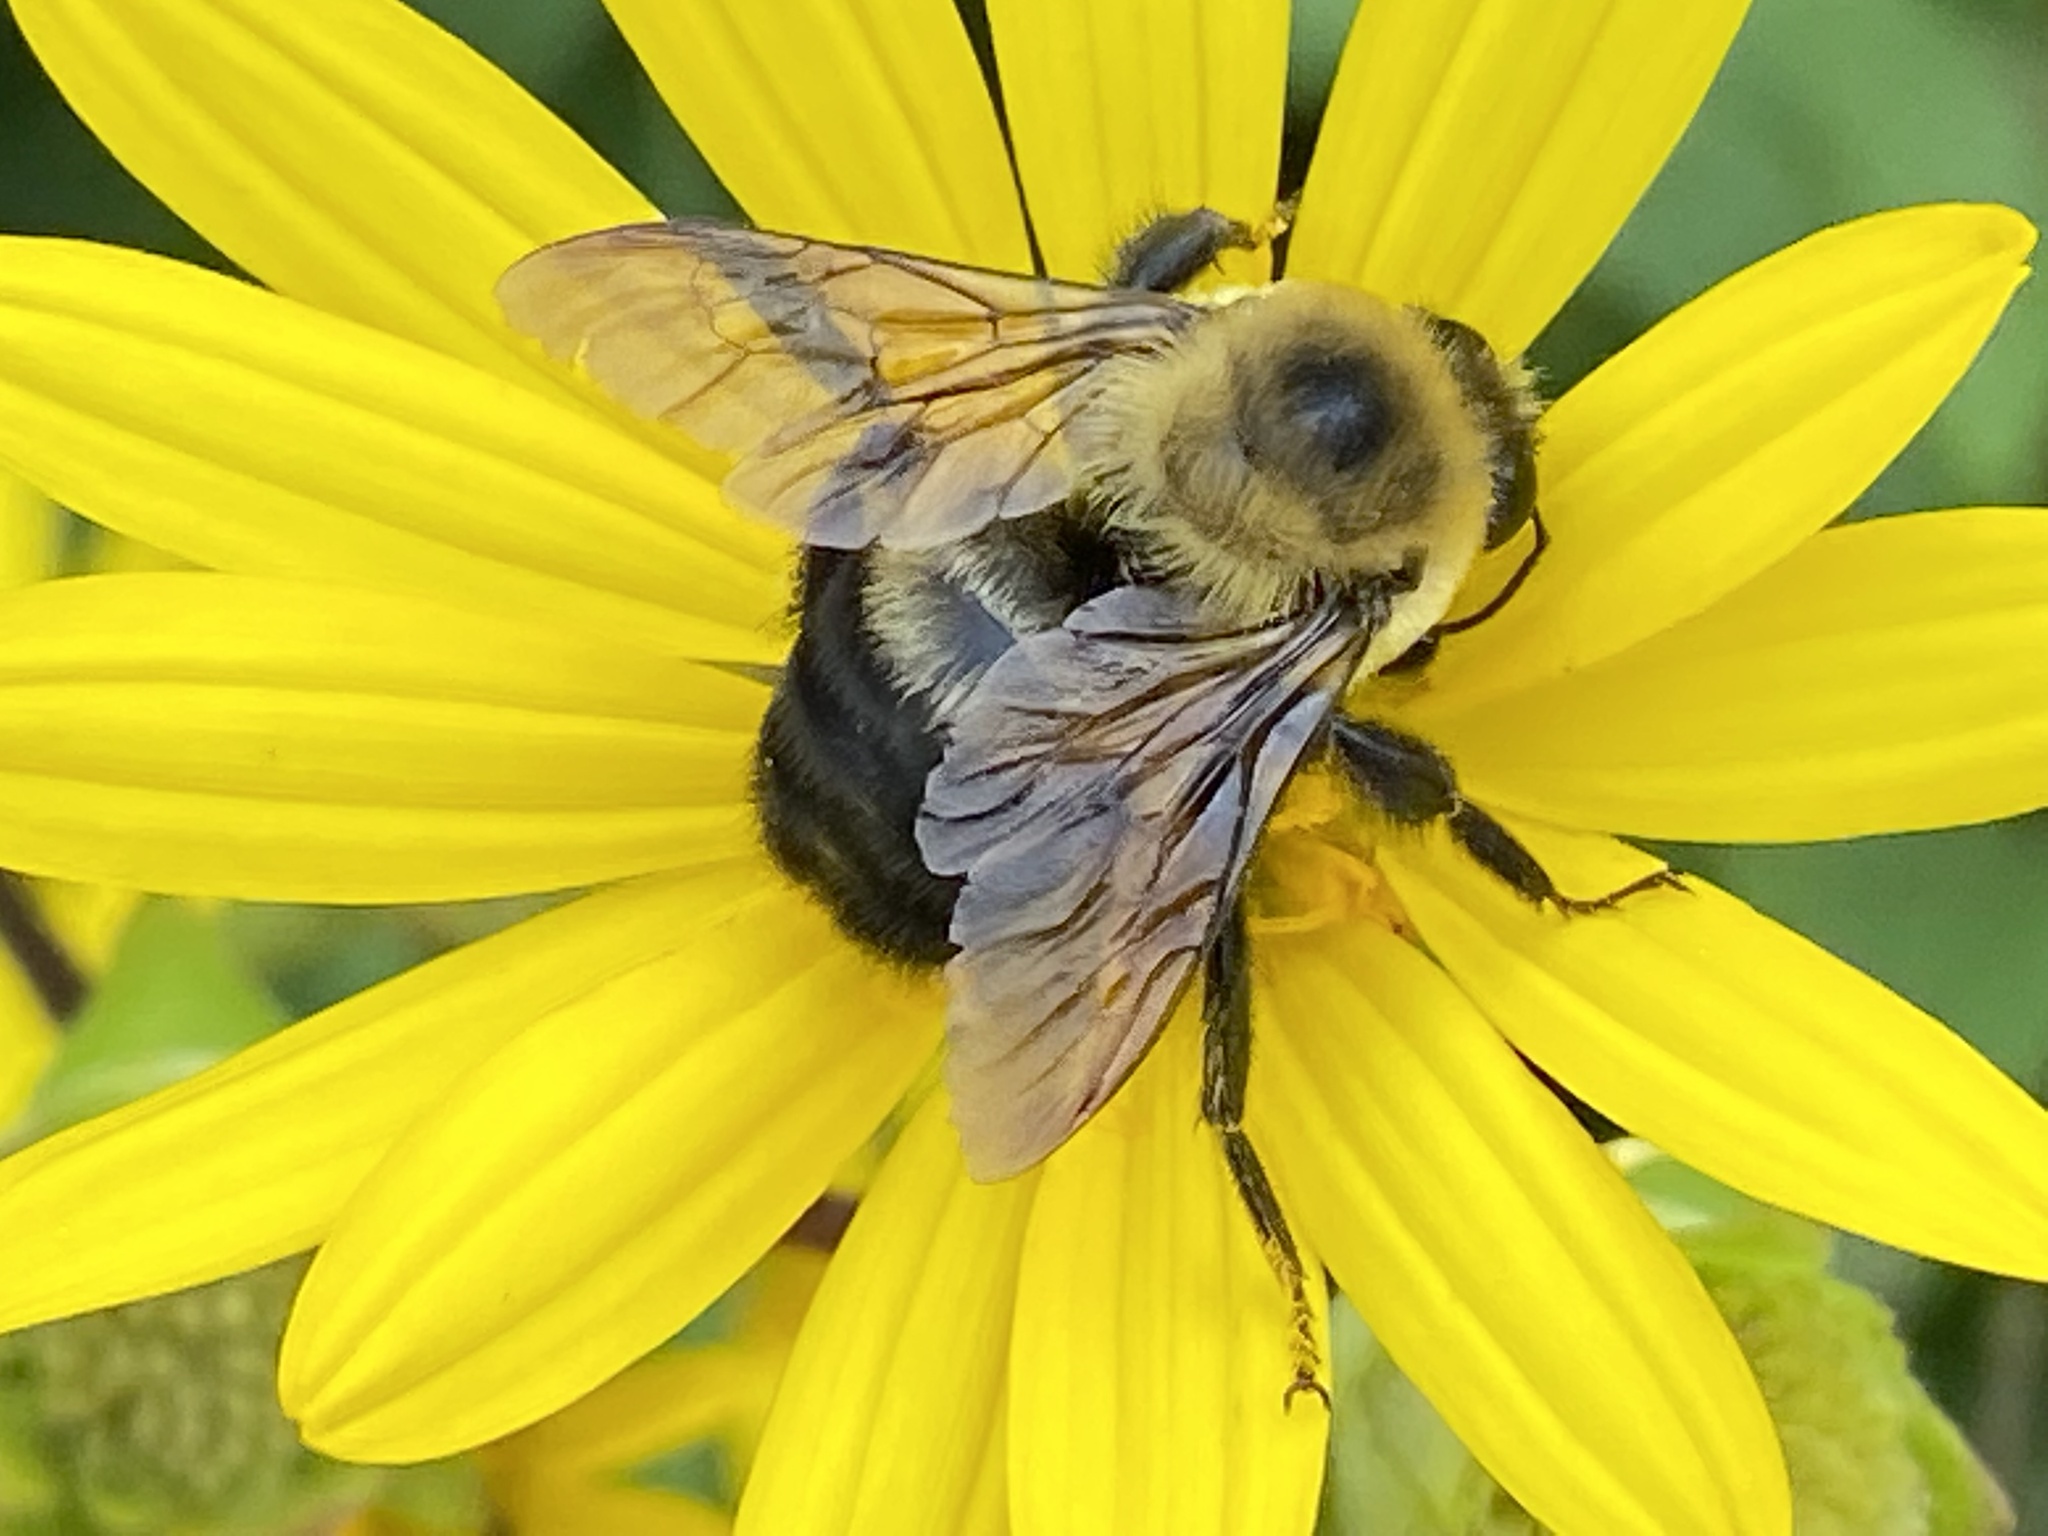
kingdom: Animalia
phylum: Arthropoda
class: Insecta
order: Hymenoptera
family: Apidae
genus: Bombus
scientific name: Bombus griseocollis
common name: Brown-belted bumble bee
